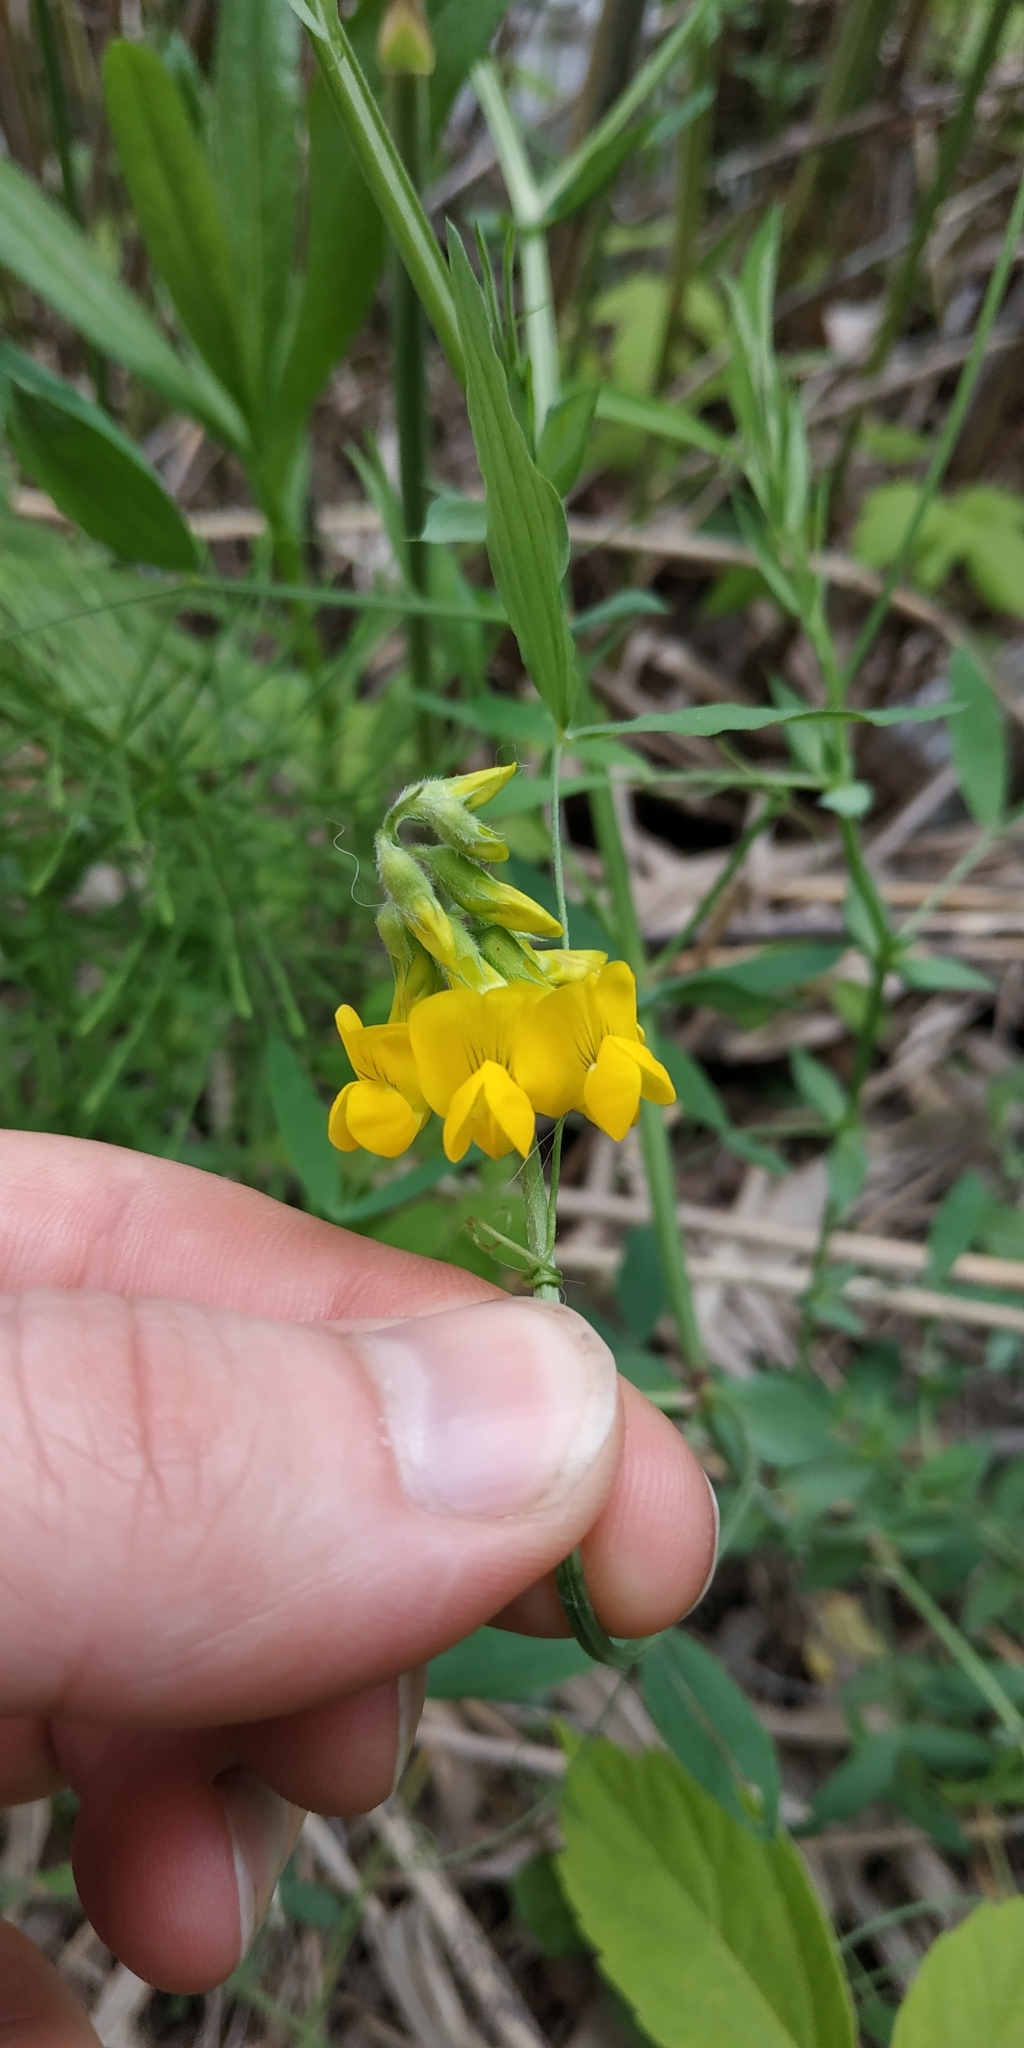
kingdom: Plantae
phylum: Tracheophyta
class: Magnoliopsida
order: Fabales
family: Fabaceae
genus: Lathyrus
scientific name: Lathyrus pratensis
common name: Meadow vetchling
